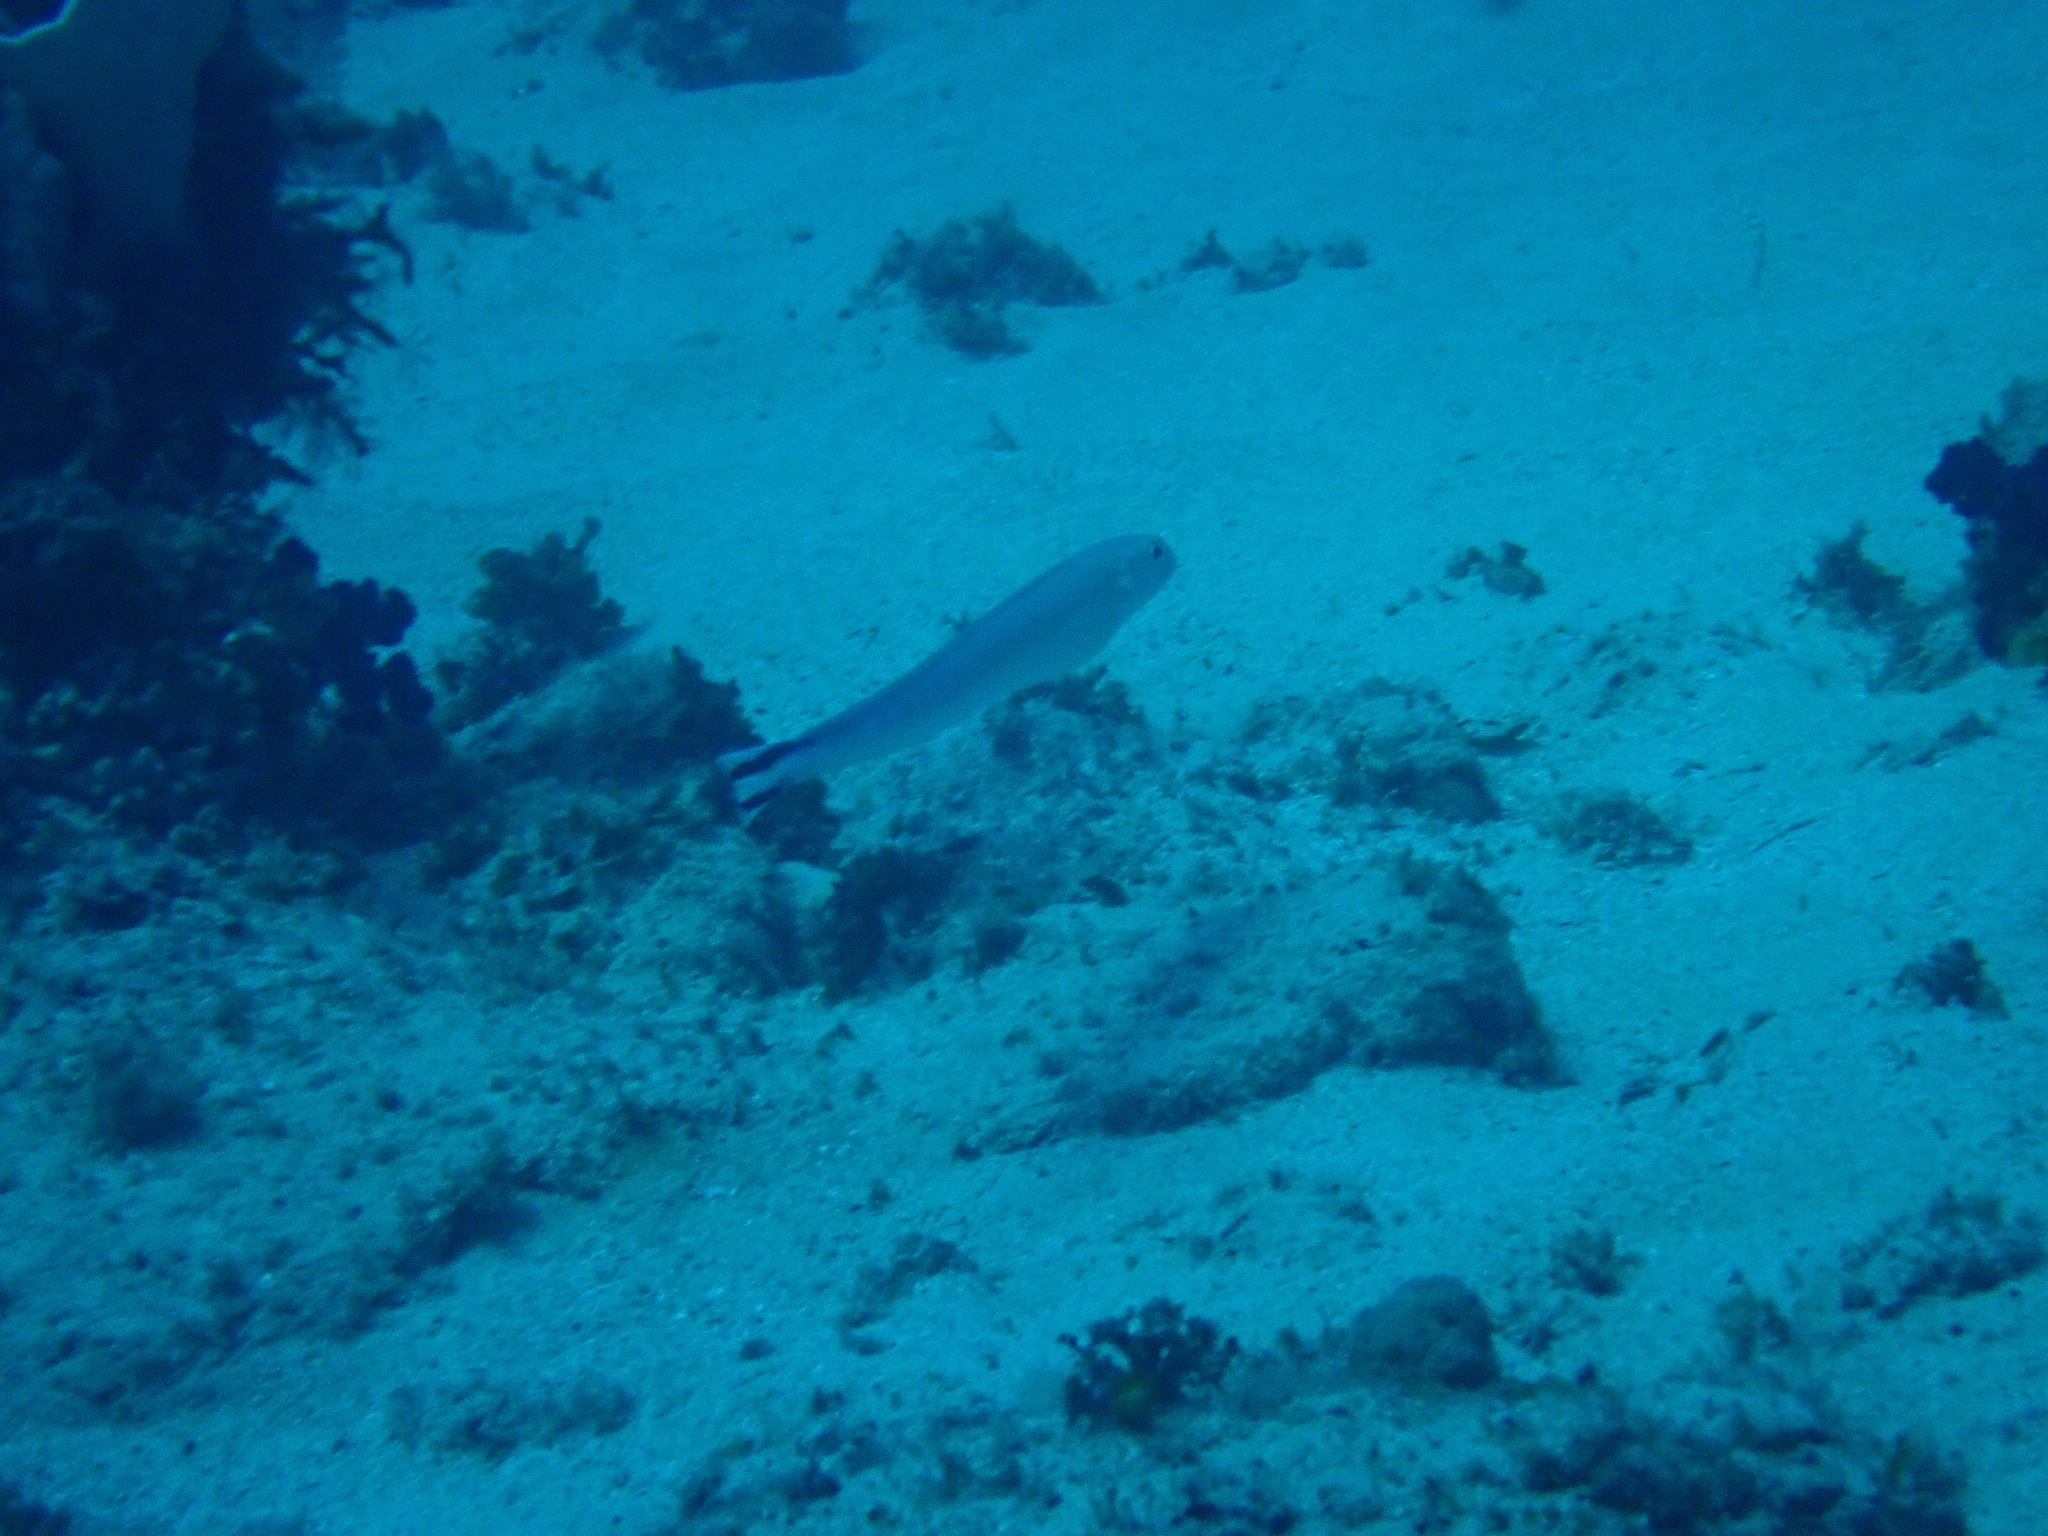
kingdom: Animalia
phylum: Chordata
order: Perciformes
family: Malacanthidae
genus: Malacanthus
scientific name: Malacanthus brevirostris
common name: Flagtail blanquillo
